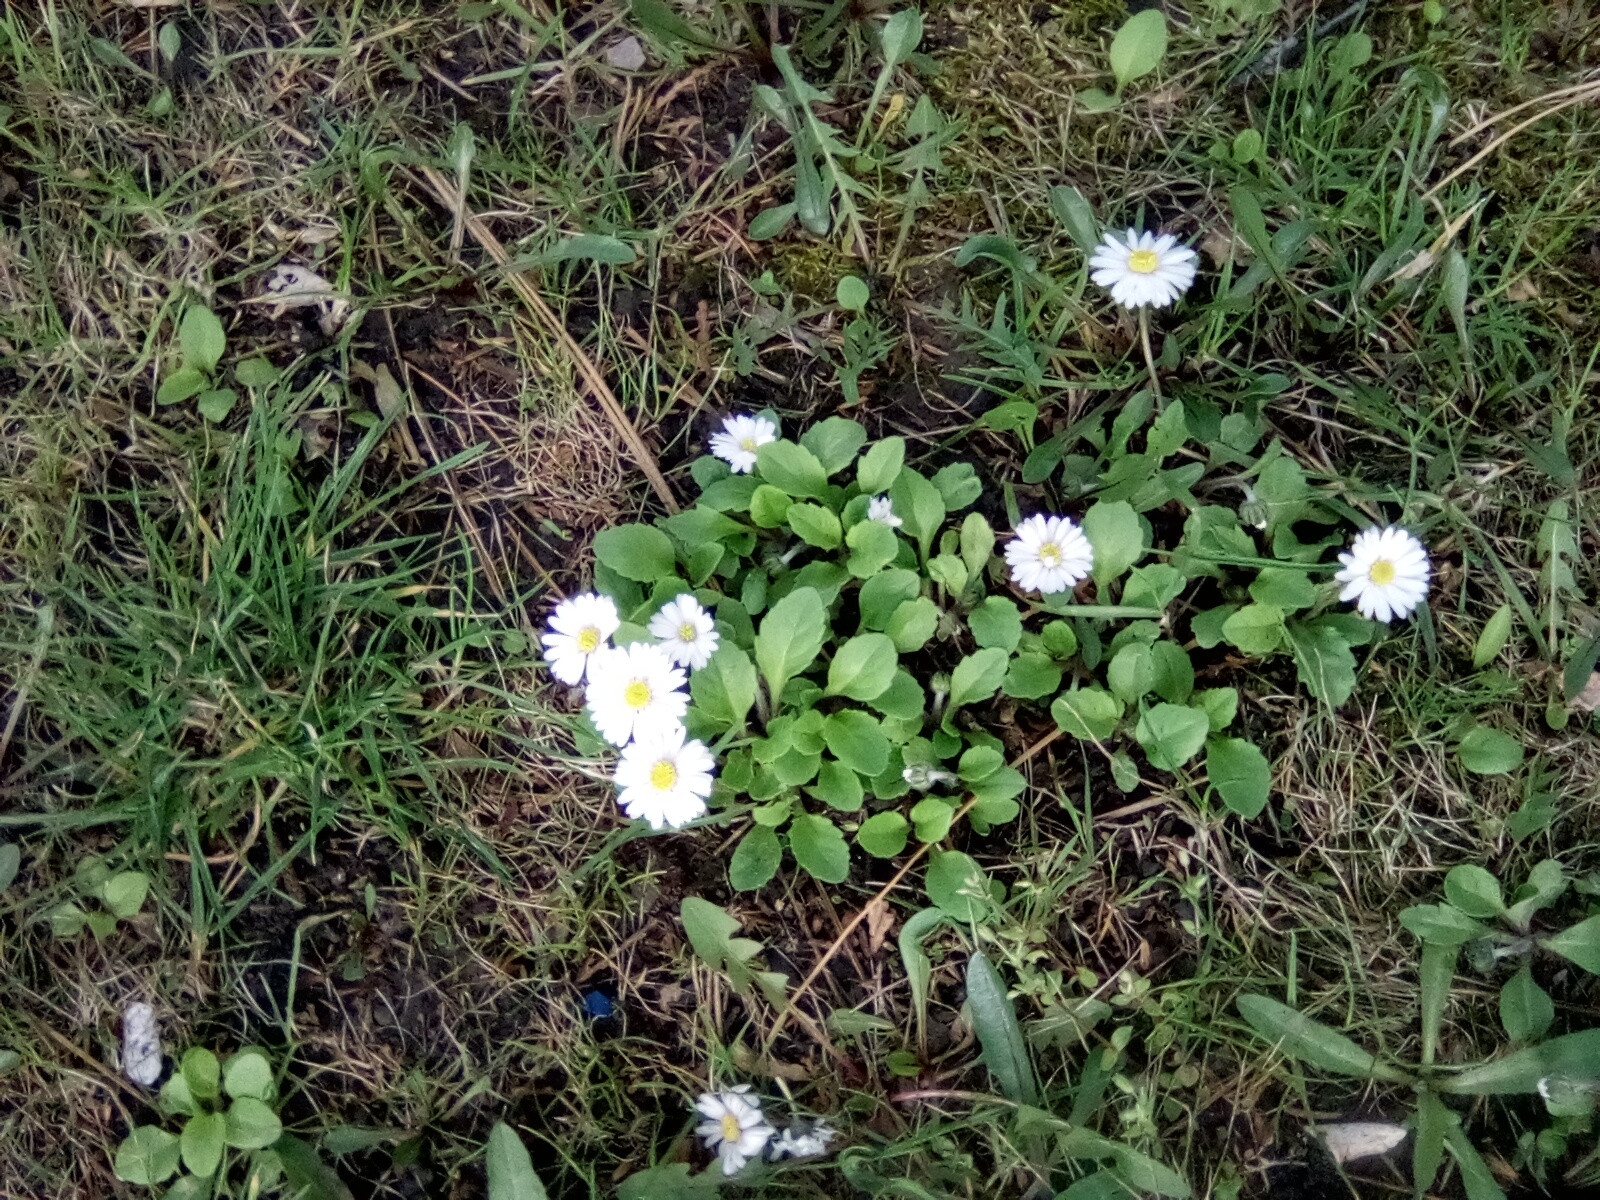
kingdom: Plantae
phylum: Tracheophyta
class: Magnoliopsida
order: Asterales
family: Asteraceae
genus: Bellis
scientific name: Bellis perennis
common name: Lawndaisy
